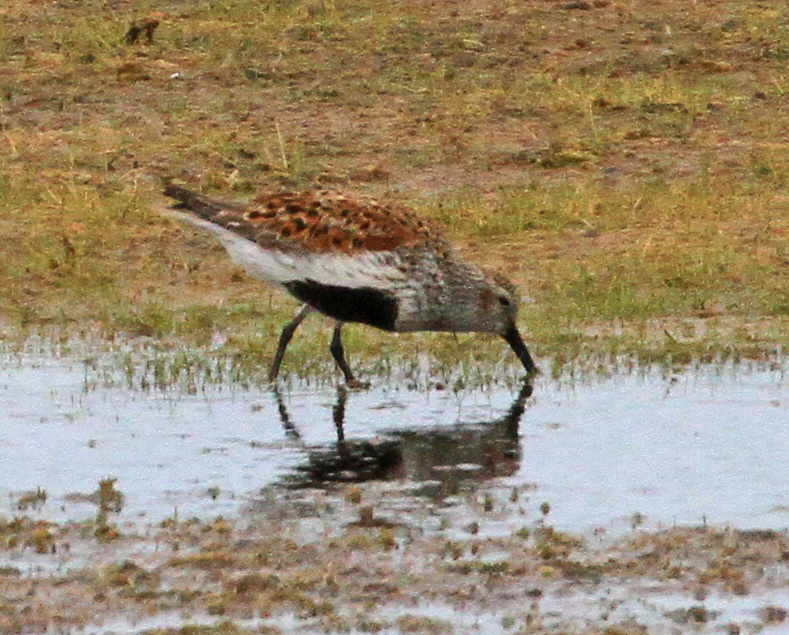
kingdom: Animalia
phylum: Chordata
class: Aves
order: Charadriiformes
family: Scolopacidae
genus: Calidris
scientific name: Calidris alpina
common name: Dunlin
